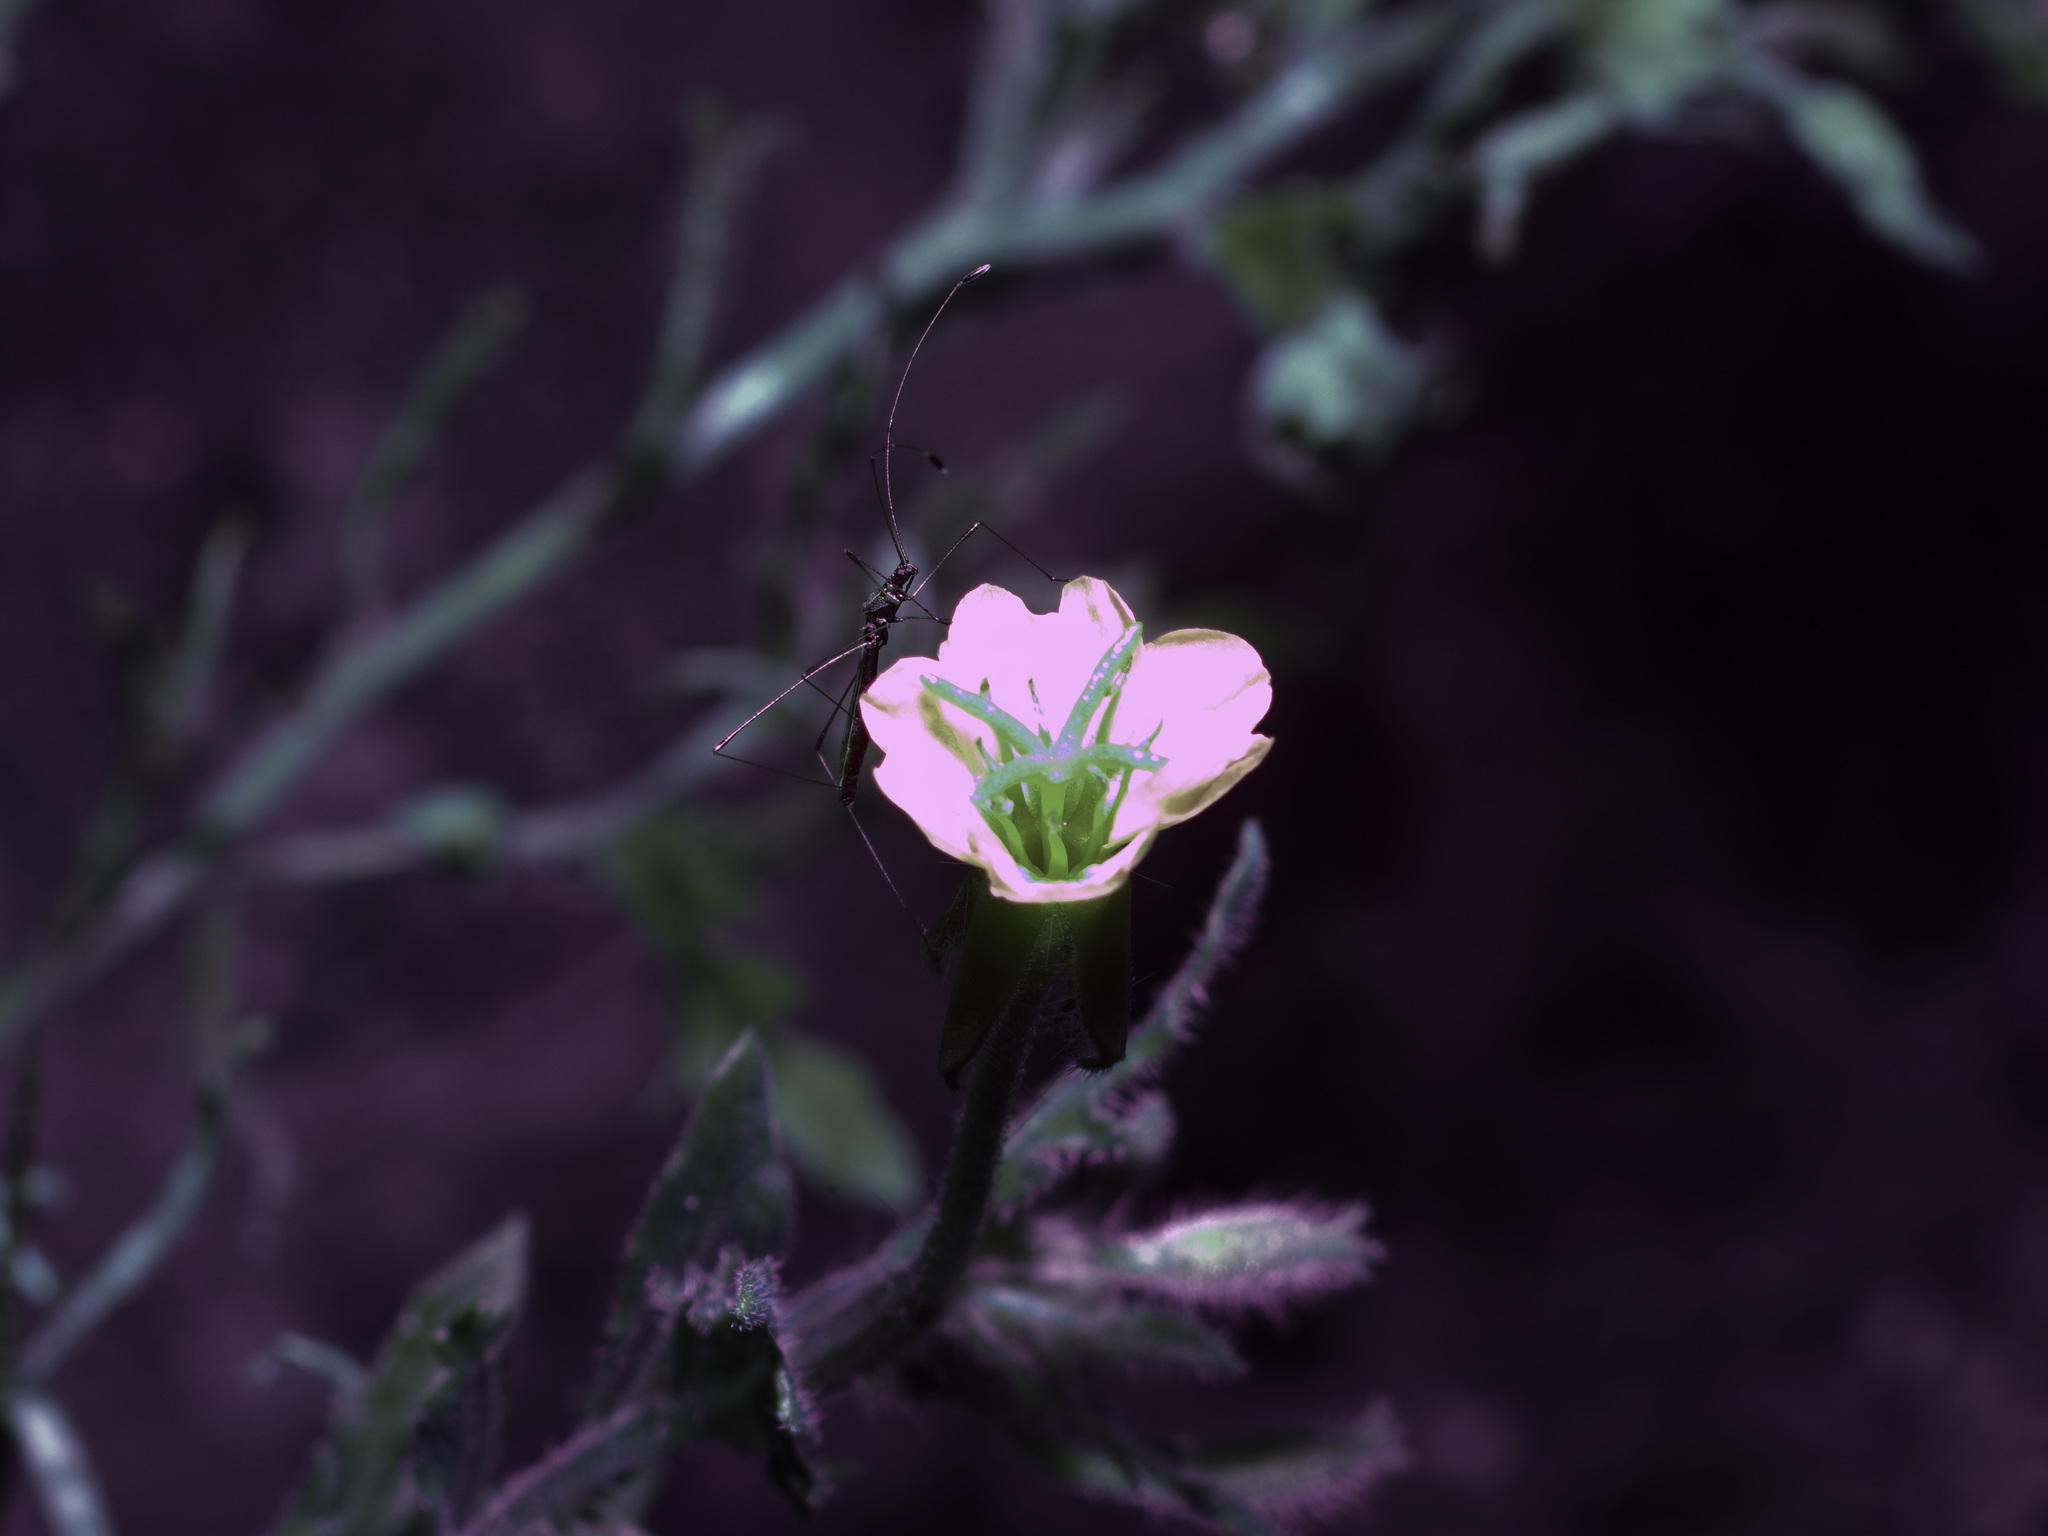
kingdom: Plantae
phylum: Tracheophyta
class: Magnoliopsida
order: Myrtales
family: Onagraceae
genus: Oenothera
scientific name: Oenothera laciniata
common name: Cut-leaved evening-primrose
